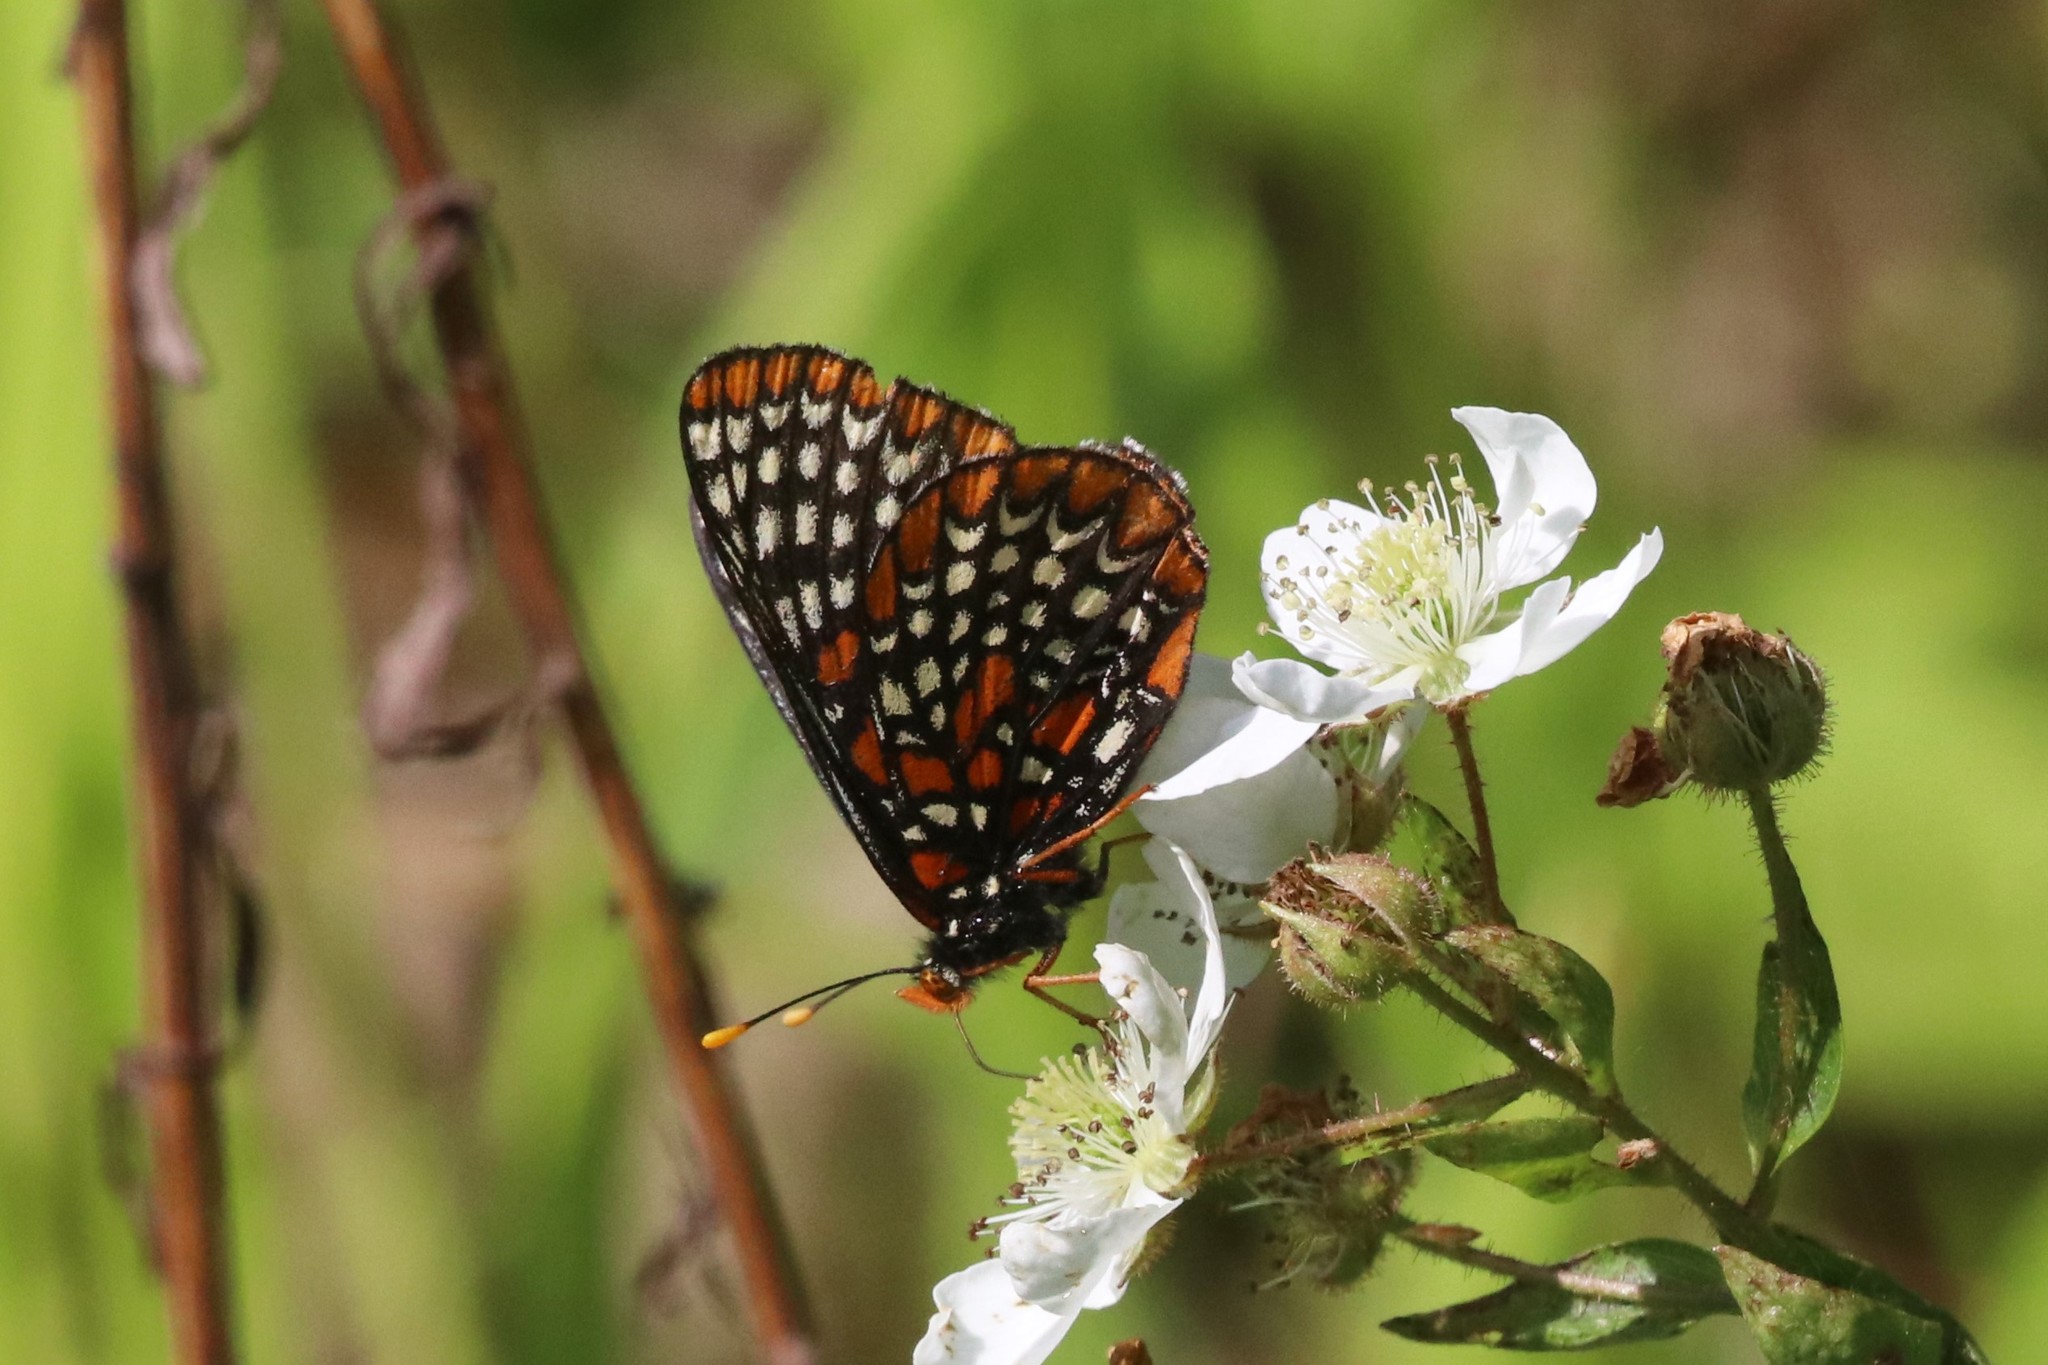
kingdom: Animalia
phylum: Arthropoda
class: Insecta
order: Lepidoptera
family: Nymphalidae
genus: Euphydryas
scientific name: Euphydryas phaeton
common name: Baltimore checkerspot
